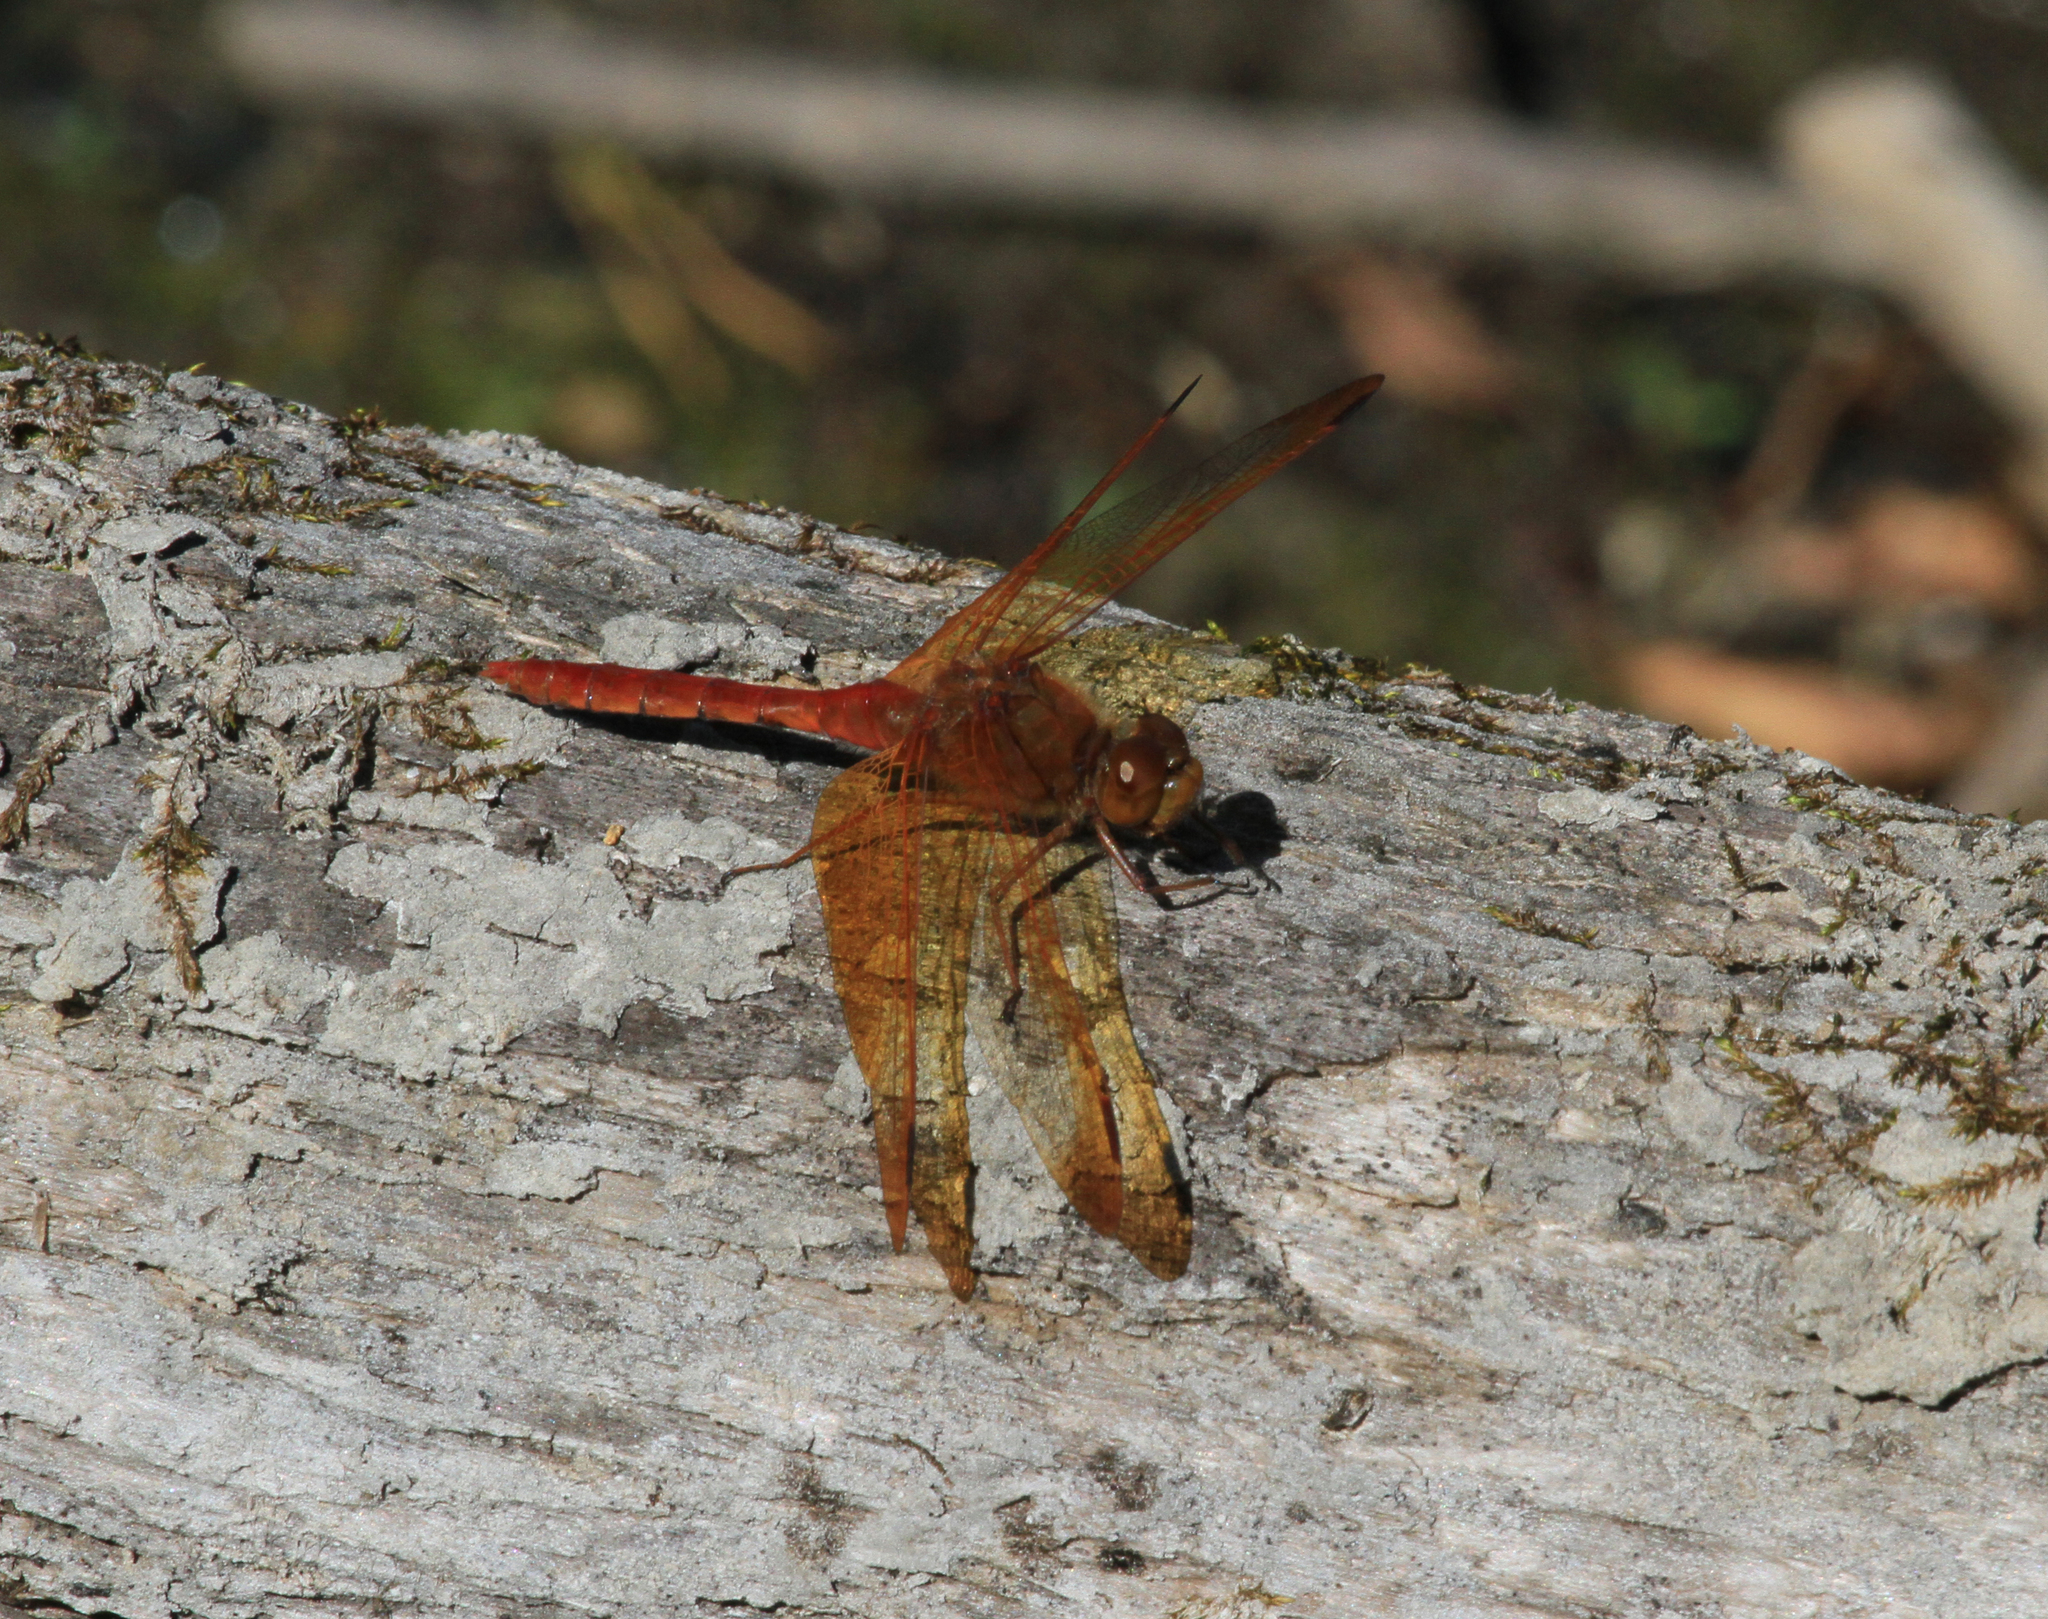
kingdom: Animalia
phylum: Arthropoda
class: Insecta
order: Odonata
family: Libellulidae
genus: Sympetrum
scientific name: Sympetrum croceolum
